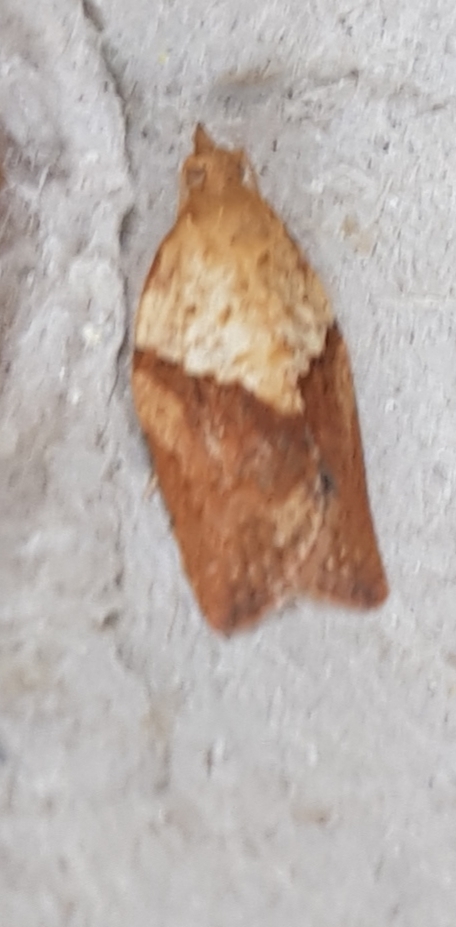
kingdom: Animalia
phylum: Arthropoda
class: Insecta
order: Lepidoptera
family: Tortricidae
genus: Epiphyas
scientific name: Epiphyas postvittana
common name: Light brown apple moth
